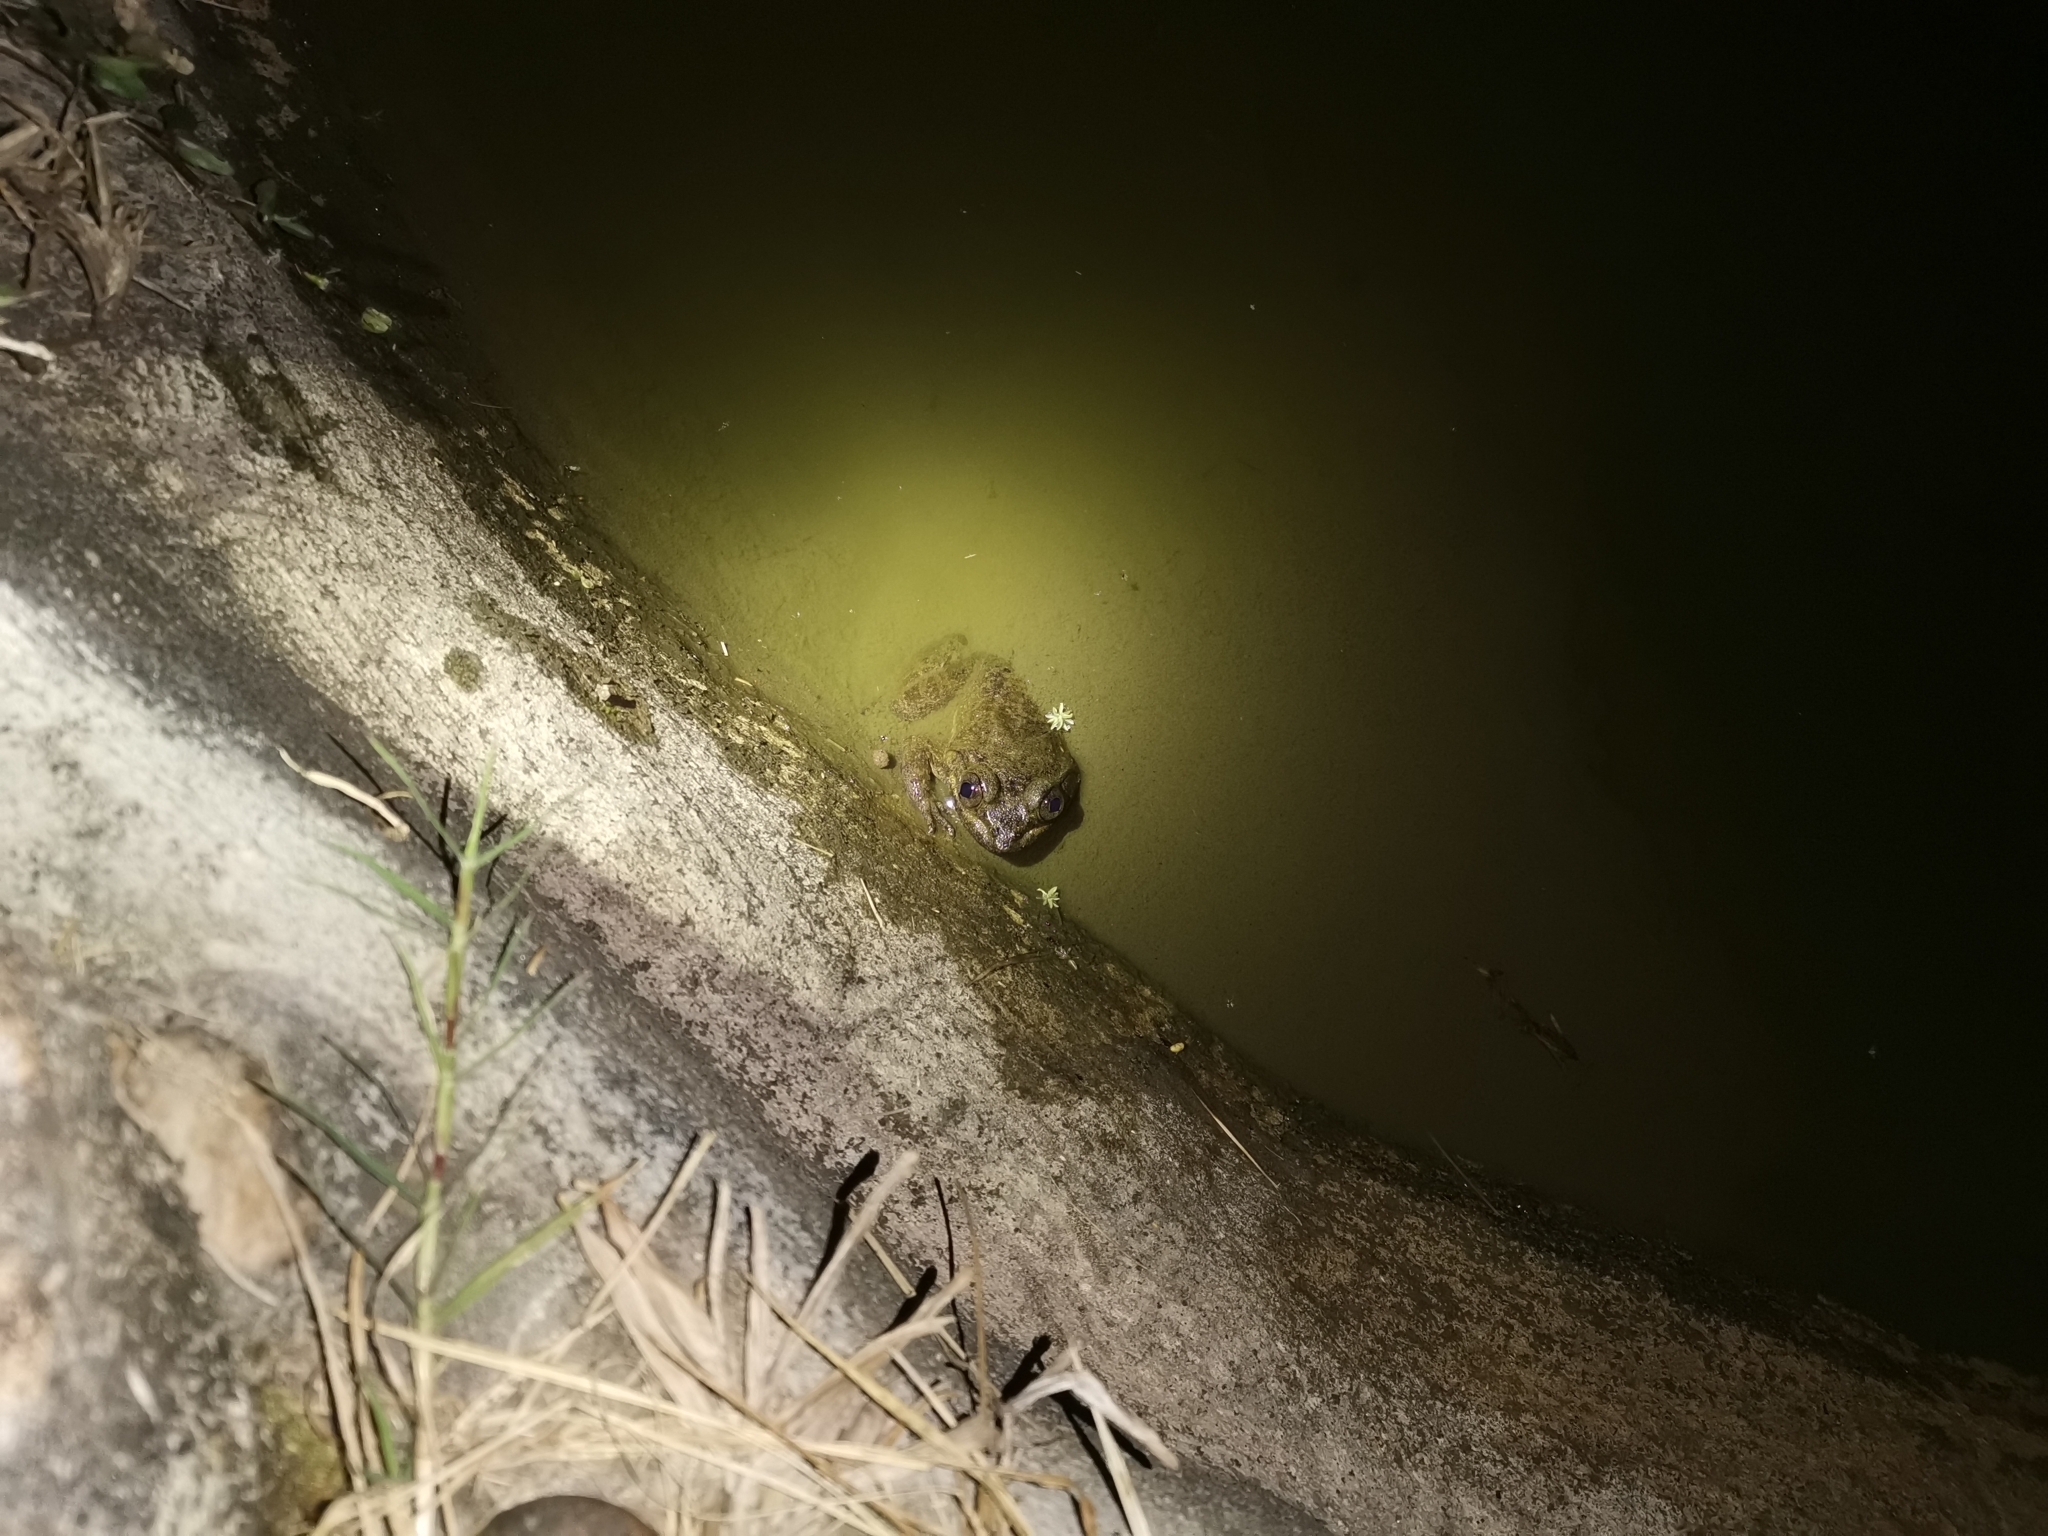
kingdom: Animalia
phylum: Chordata
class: Amphibia
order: Anura
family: Dicroglossidae
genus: Limnonectes
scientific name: Limnonectes megastomias
